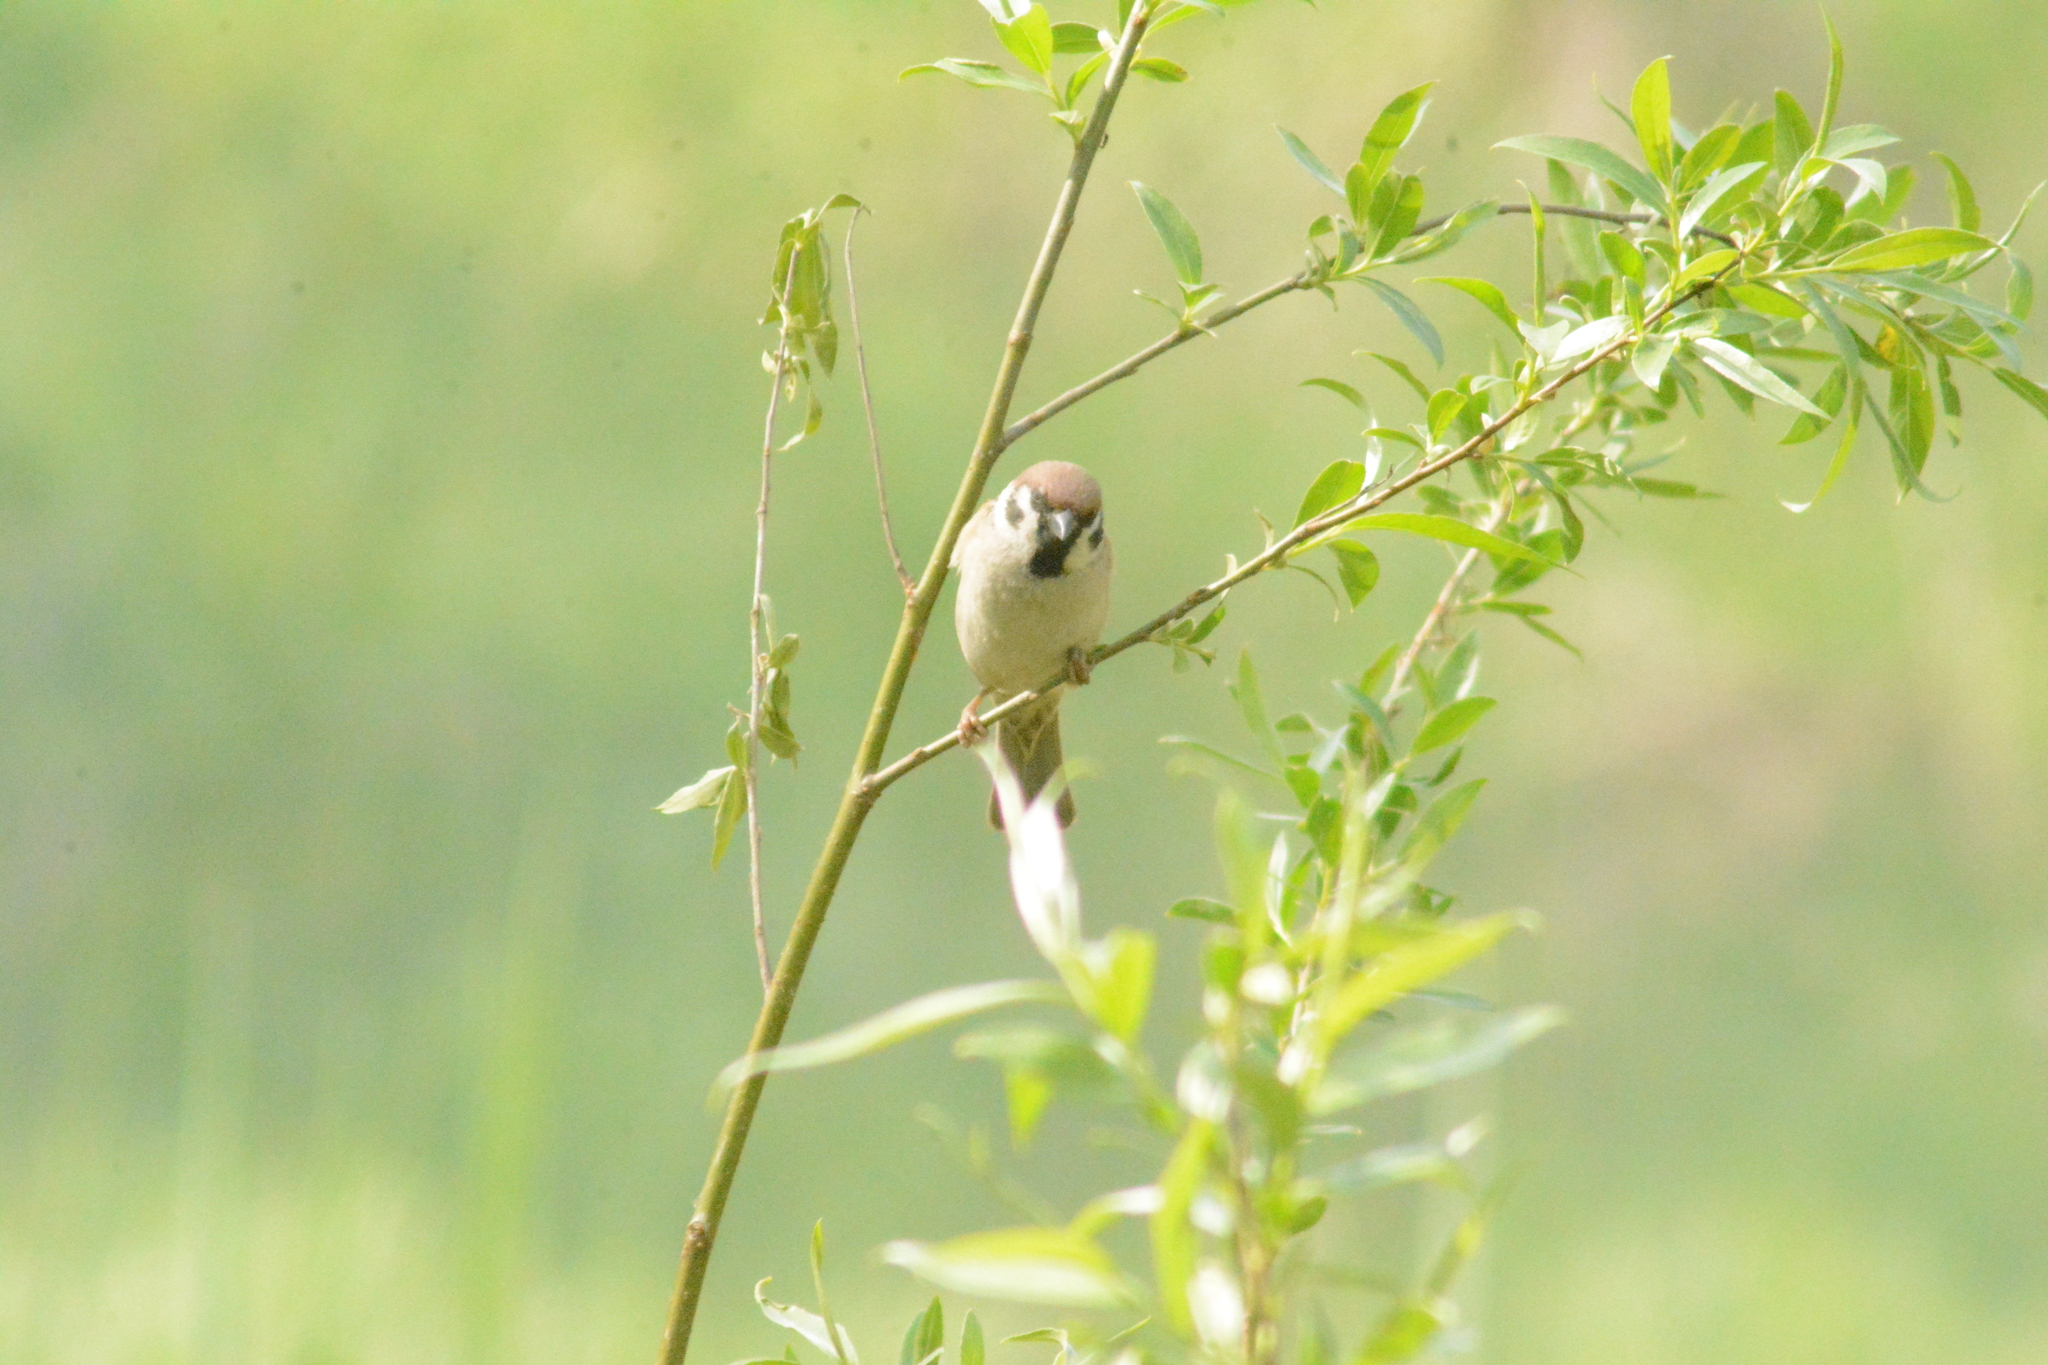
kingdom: Animalia
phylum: Chordata
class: Aves
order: Passeriformes
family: Passeridae
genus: Passer
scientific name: Passer montanus
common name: Eurasian tree sparrow
